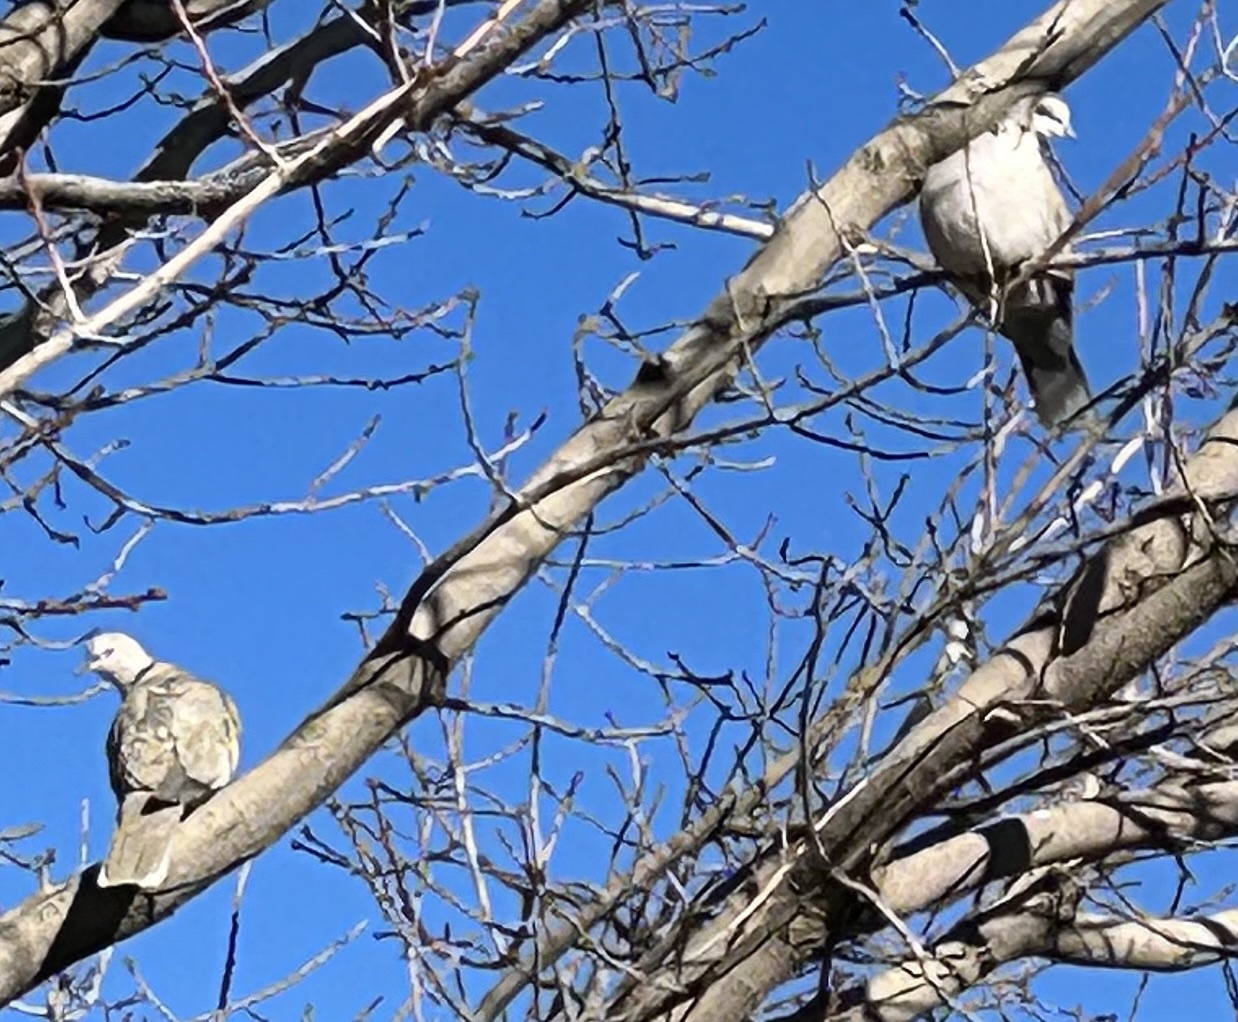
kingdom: Animalia
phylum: Chordata
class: Aves
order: Columbiformes
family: Columbidae
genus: Streptopelia
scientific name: Streptopelia decaocto
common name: Eurasian collared dove
